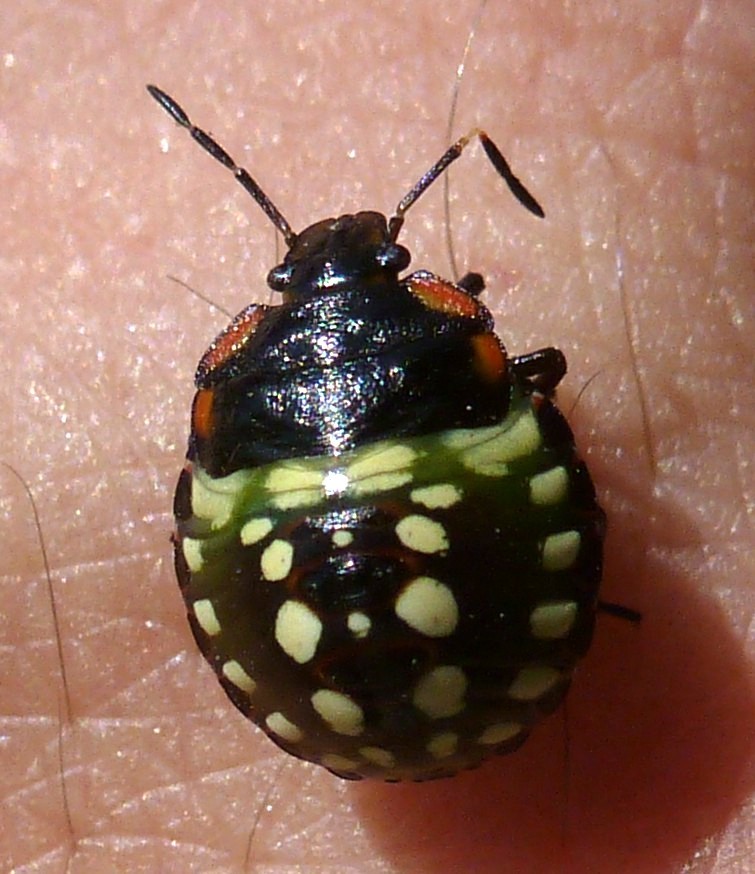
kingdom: Animalia
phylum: Arthropoda
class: Insecta
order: Hemiptera
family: Pentatomidae
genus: Nezara
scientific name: Nezara viridula
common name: Southern green stink bug
